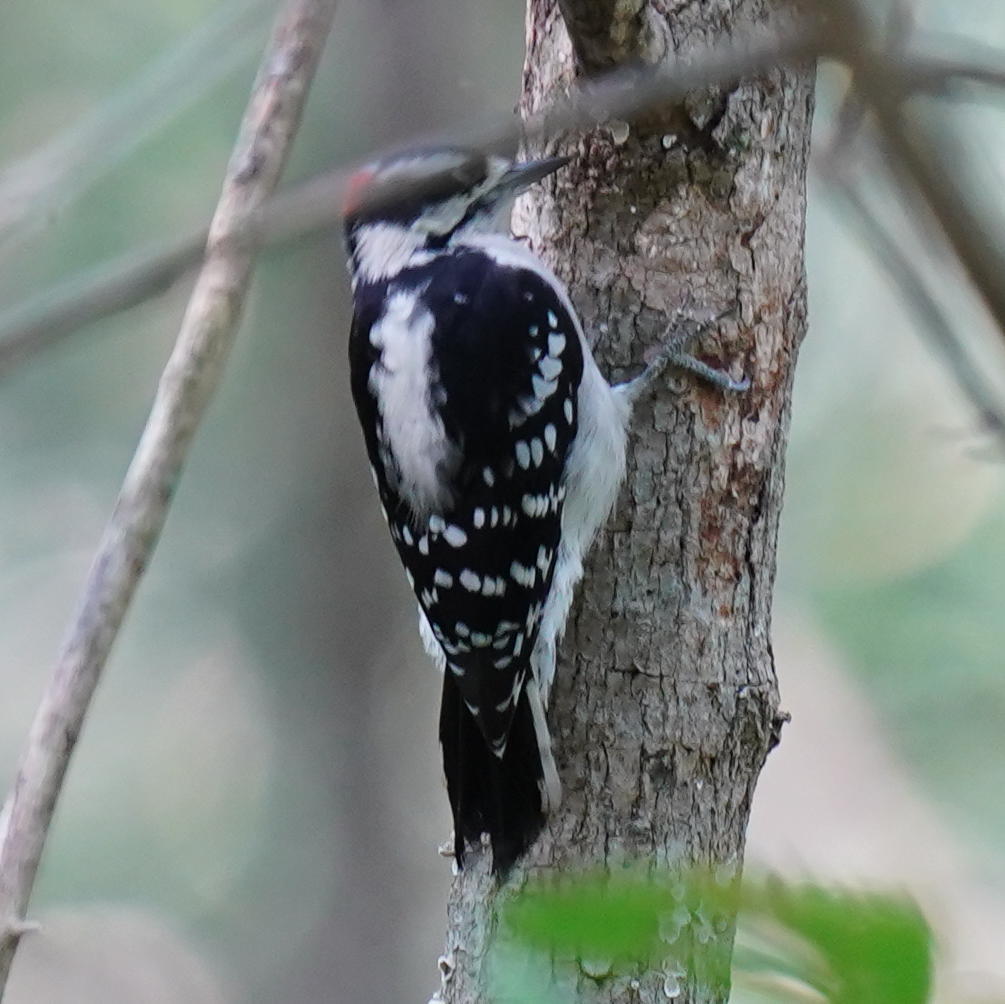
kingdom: Animalia
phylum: Chordata
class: Aves
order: Piciformes
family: Picidae
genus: Dryobates
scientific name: Dryobates pubescens
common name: Downy woodpecker
